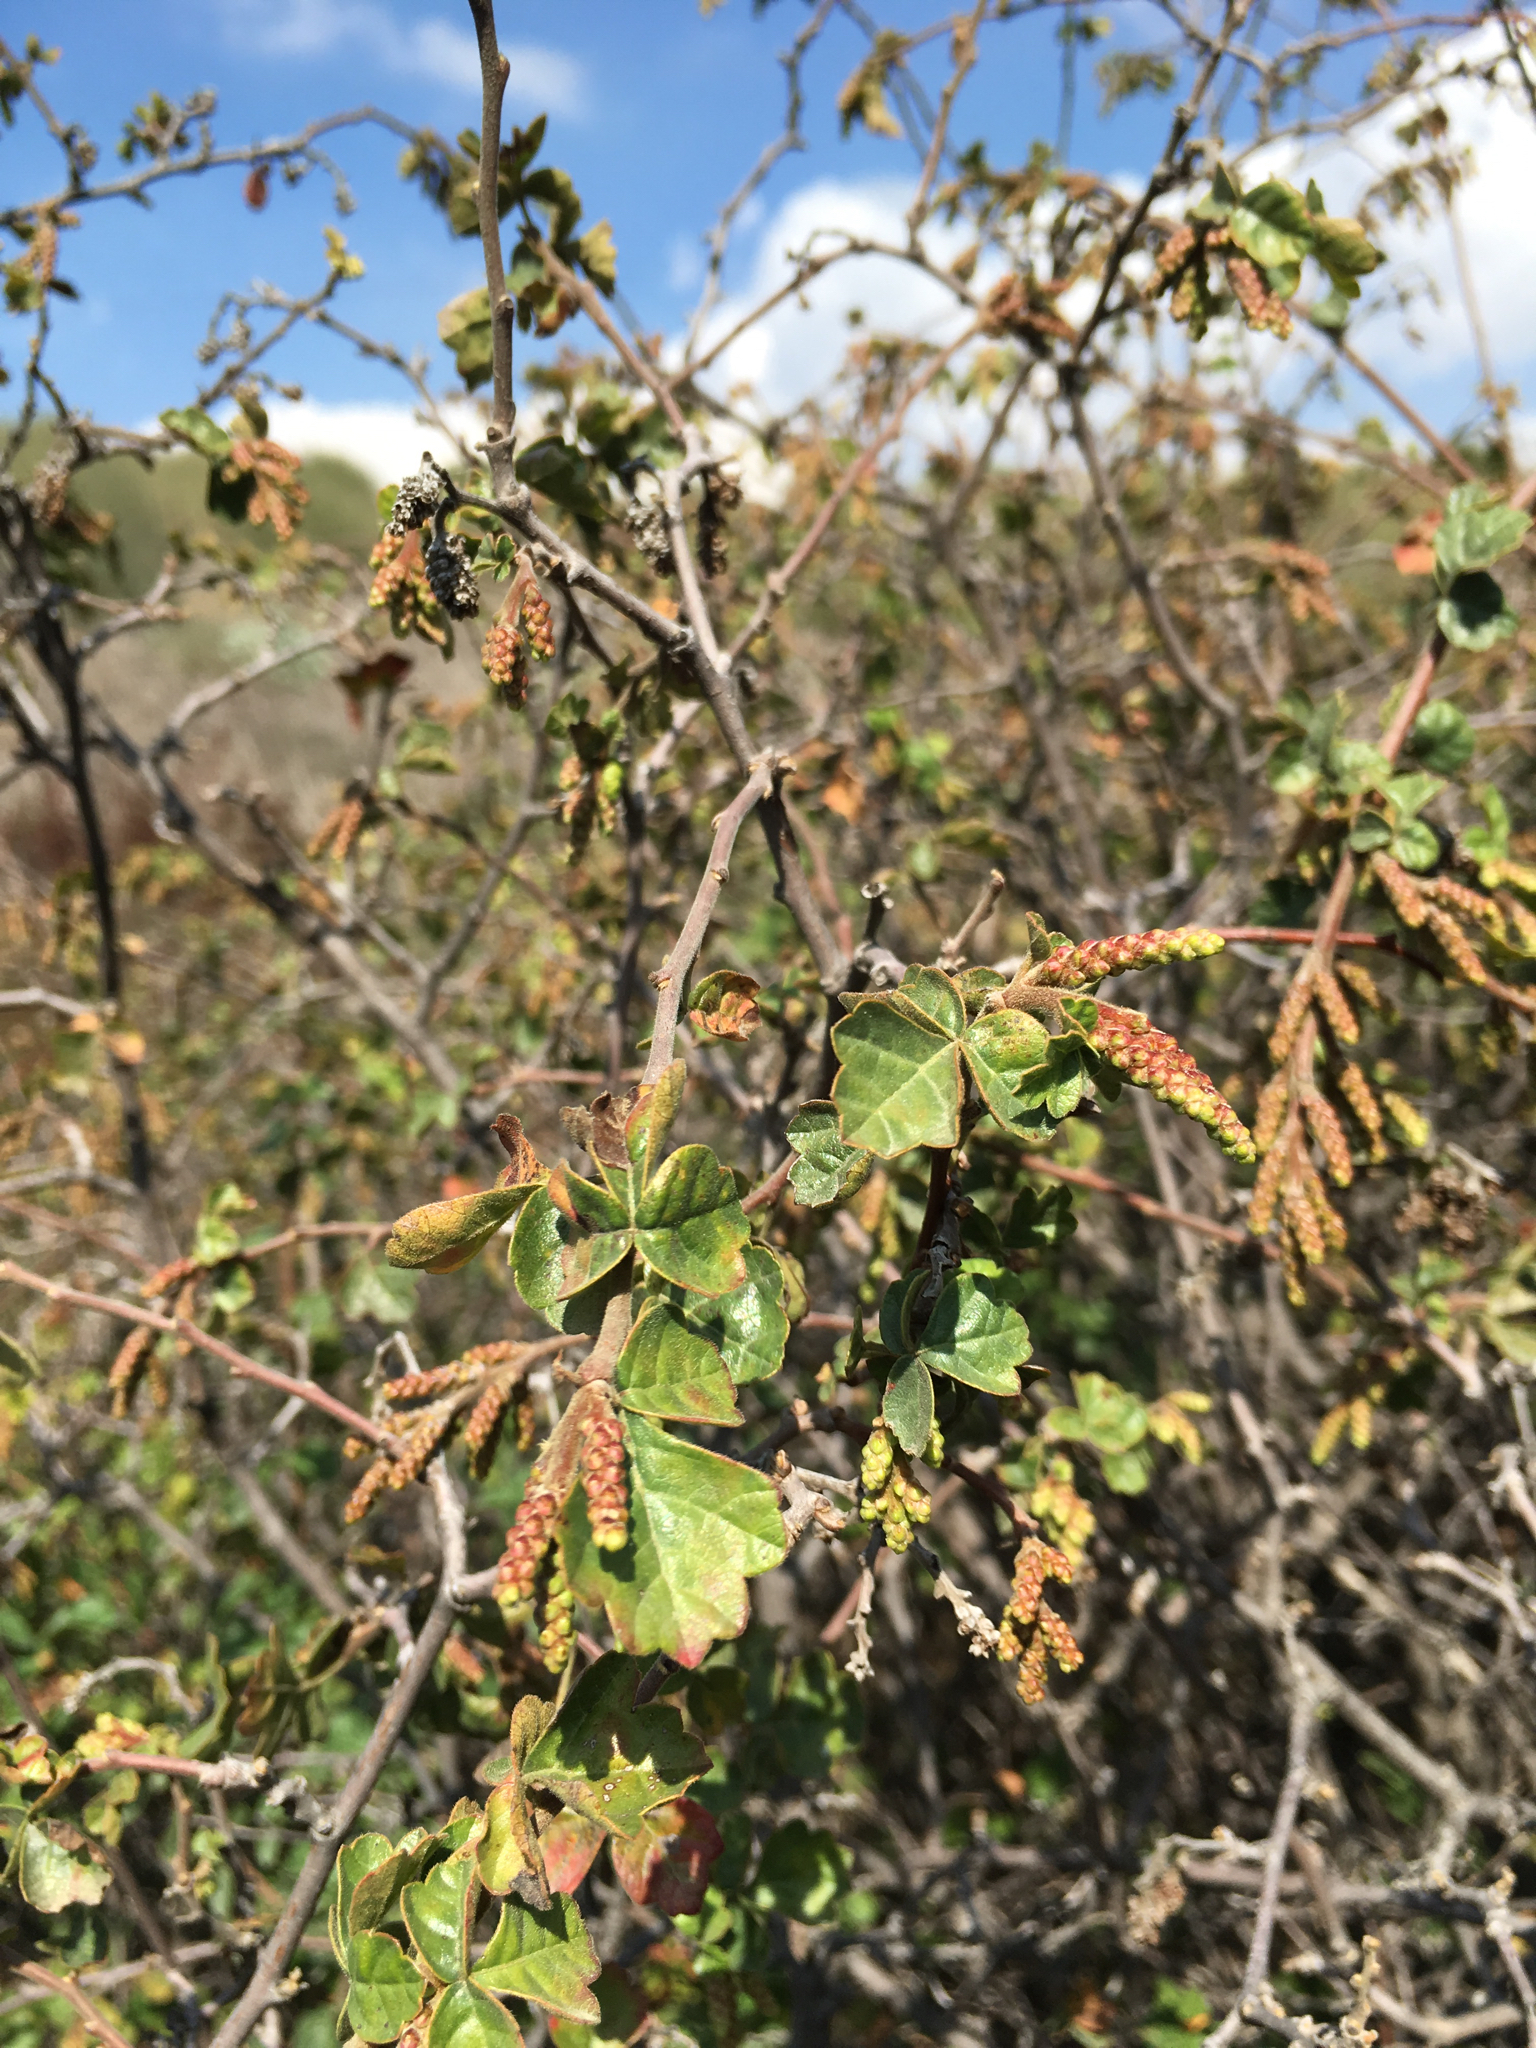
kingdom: Plantae
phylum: Tracheophyta
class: Magnoliopsida
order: Sapindales
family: Anacardiaceae
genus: Rhus
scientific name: Rhus aromatica
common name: Aromatic sumac
